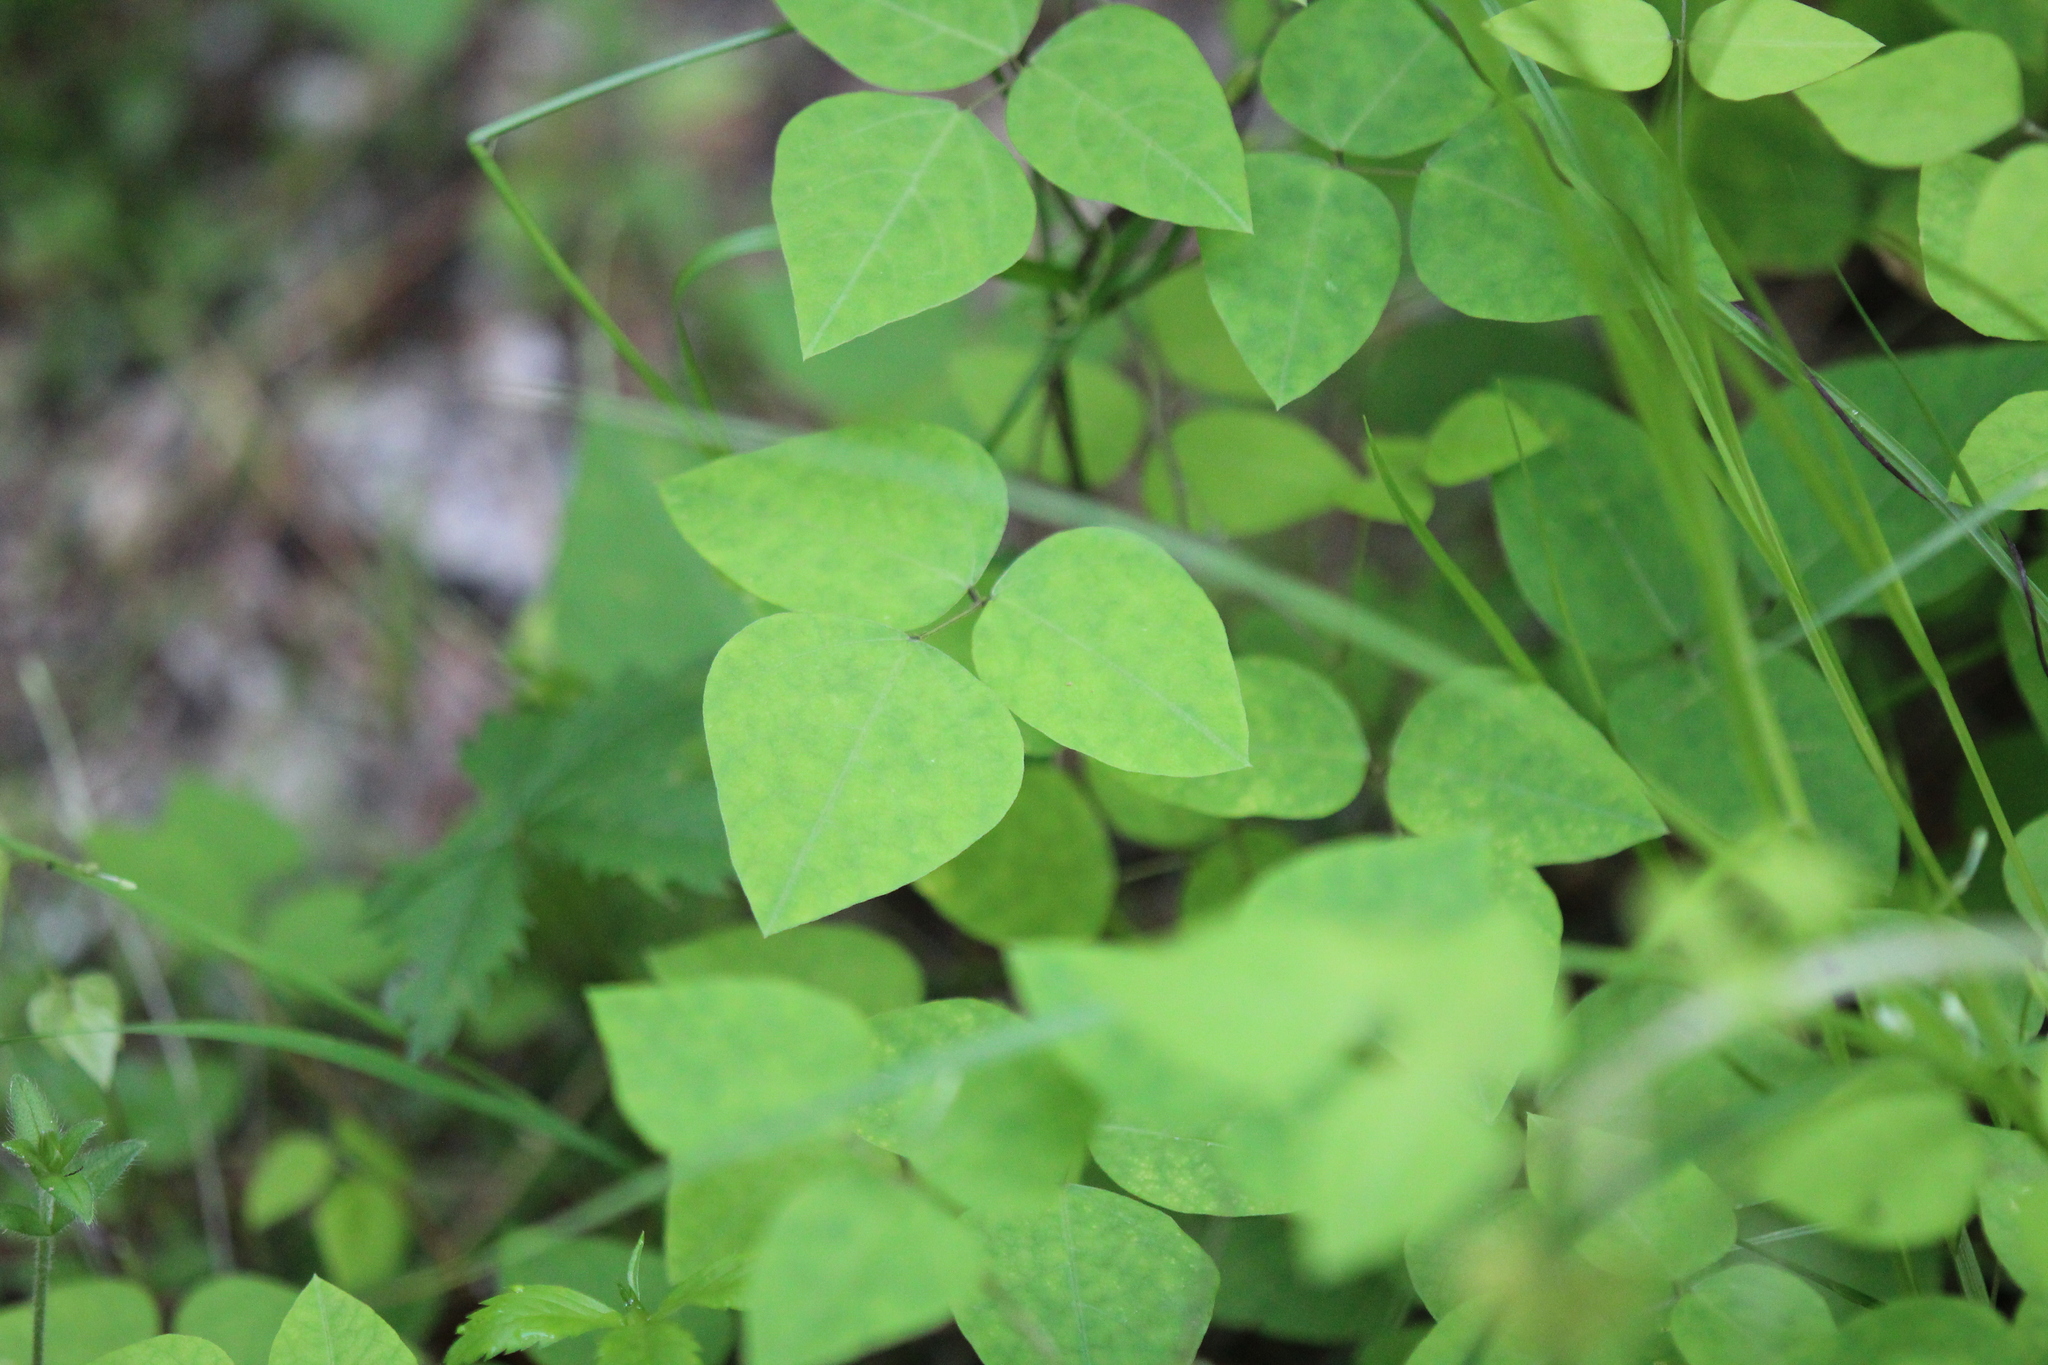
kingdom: Plantae
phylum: Tracheophyta
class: Magnoliopsida
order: Fabales
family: Fabaceae
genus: Amphicarpaea
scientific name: Amphicarpaea bracteata
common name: American hog peanut
